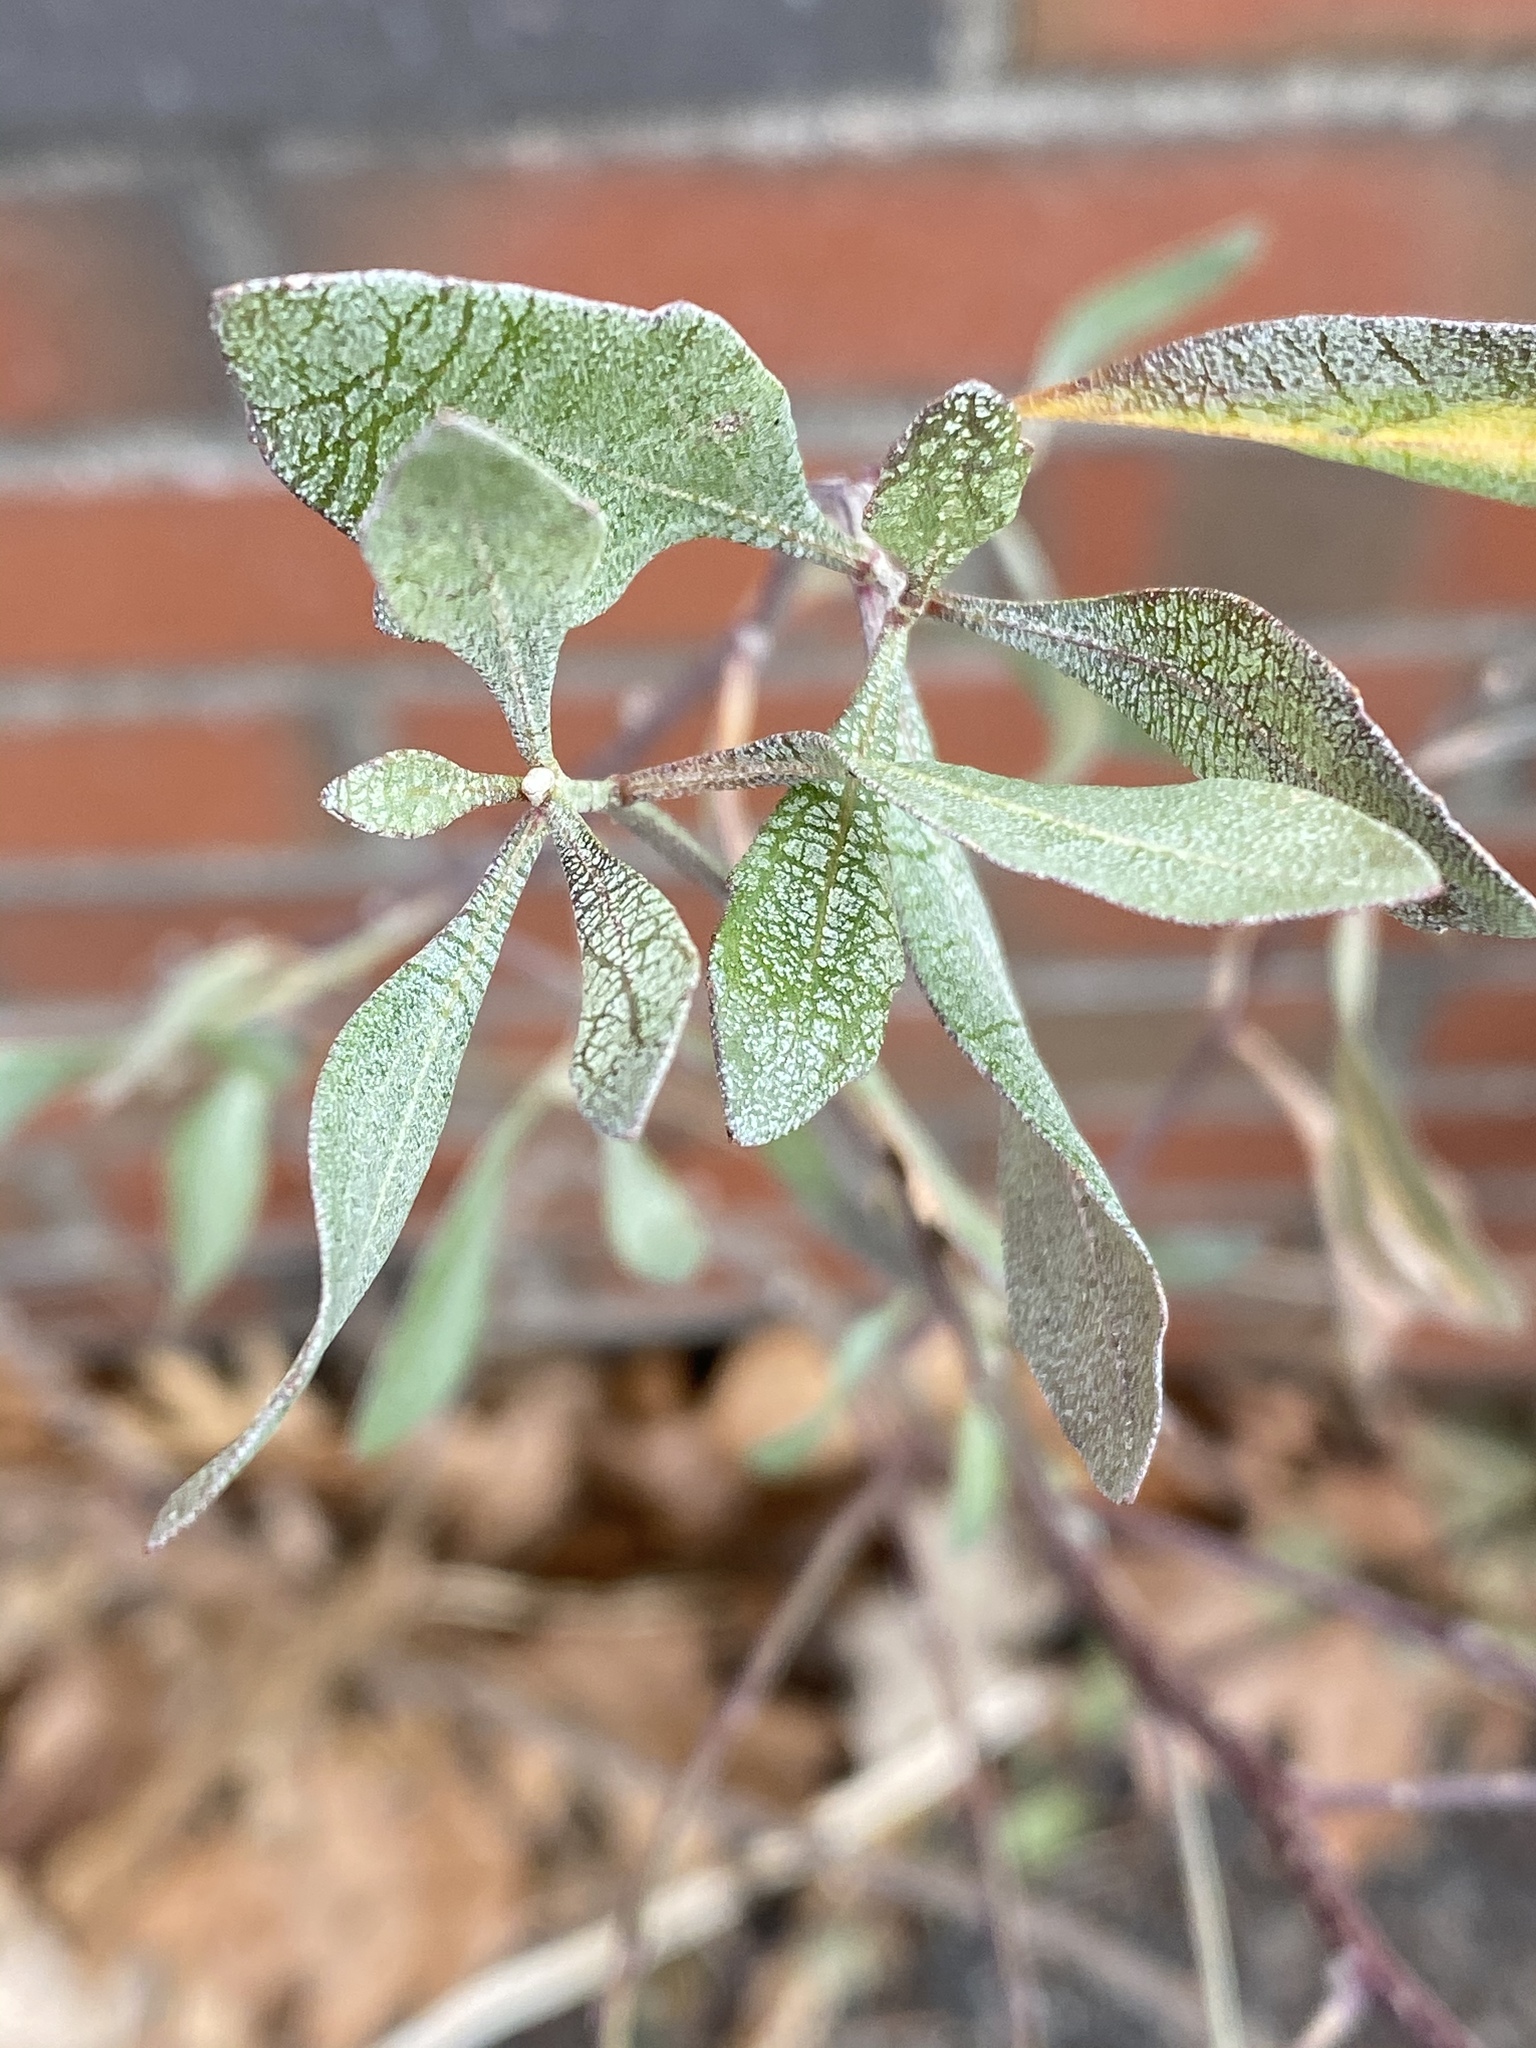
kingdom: Plantae
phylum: Tracheophyta
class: Magnoliopsida
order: Asterales
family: Asteraceae
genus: Baccharis
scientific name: Baccharis halimifolia
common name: Eastern baccharis
